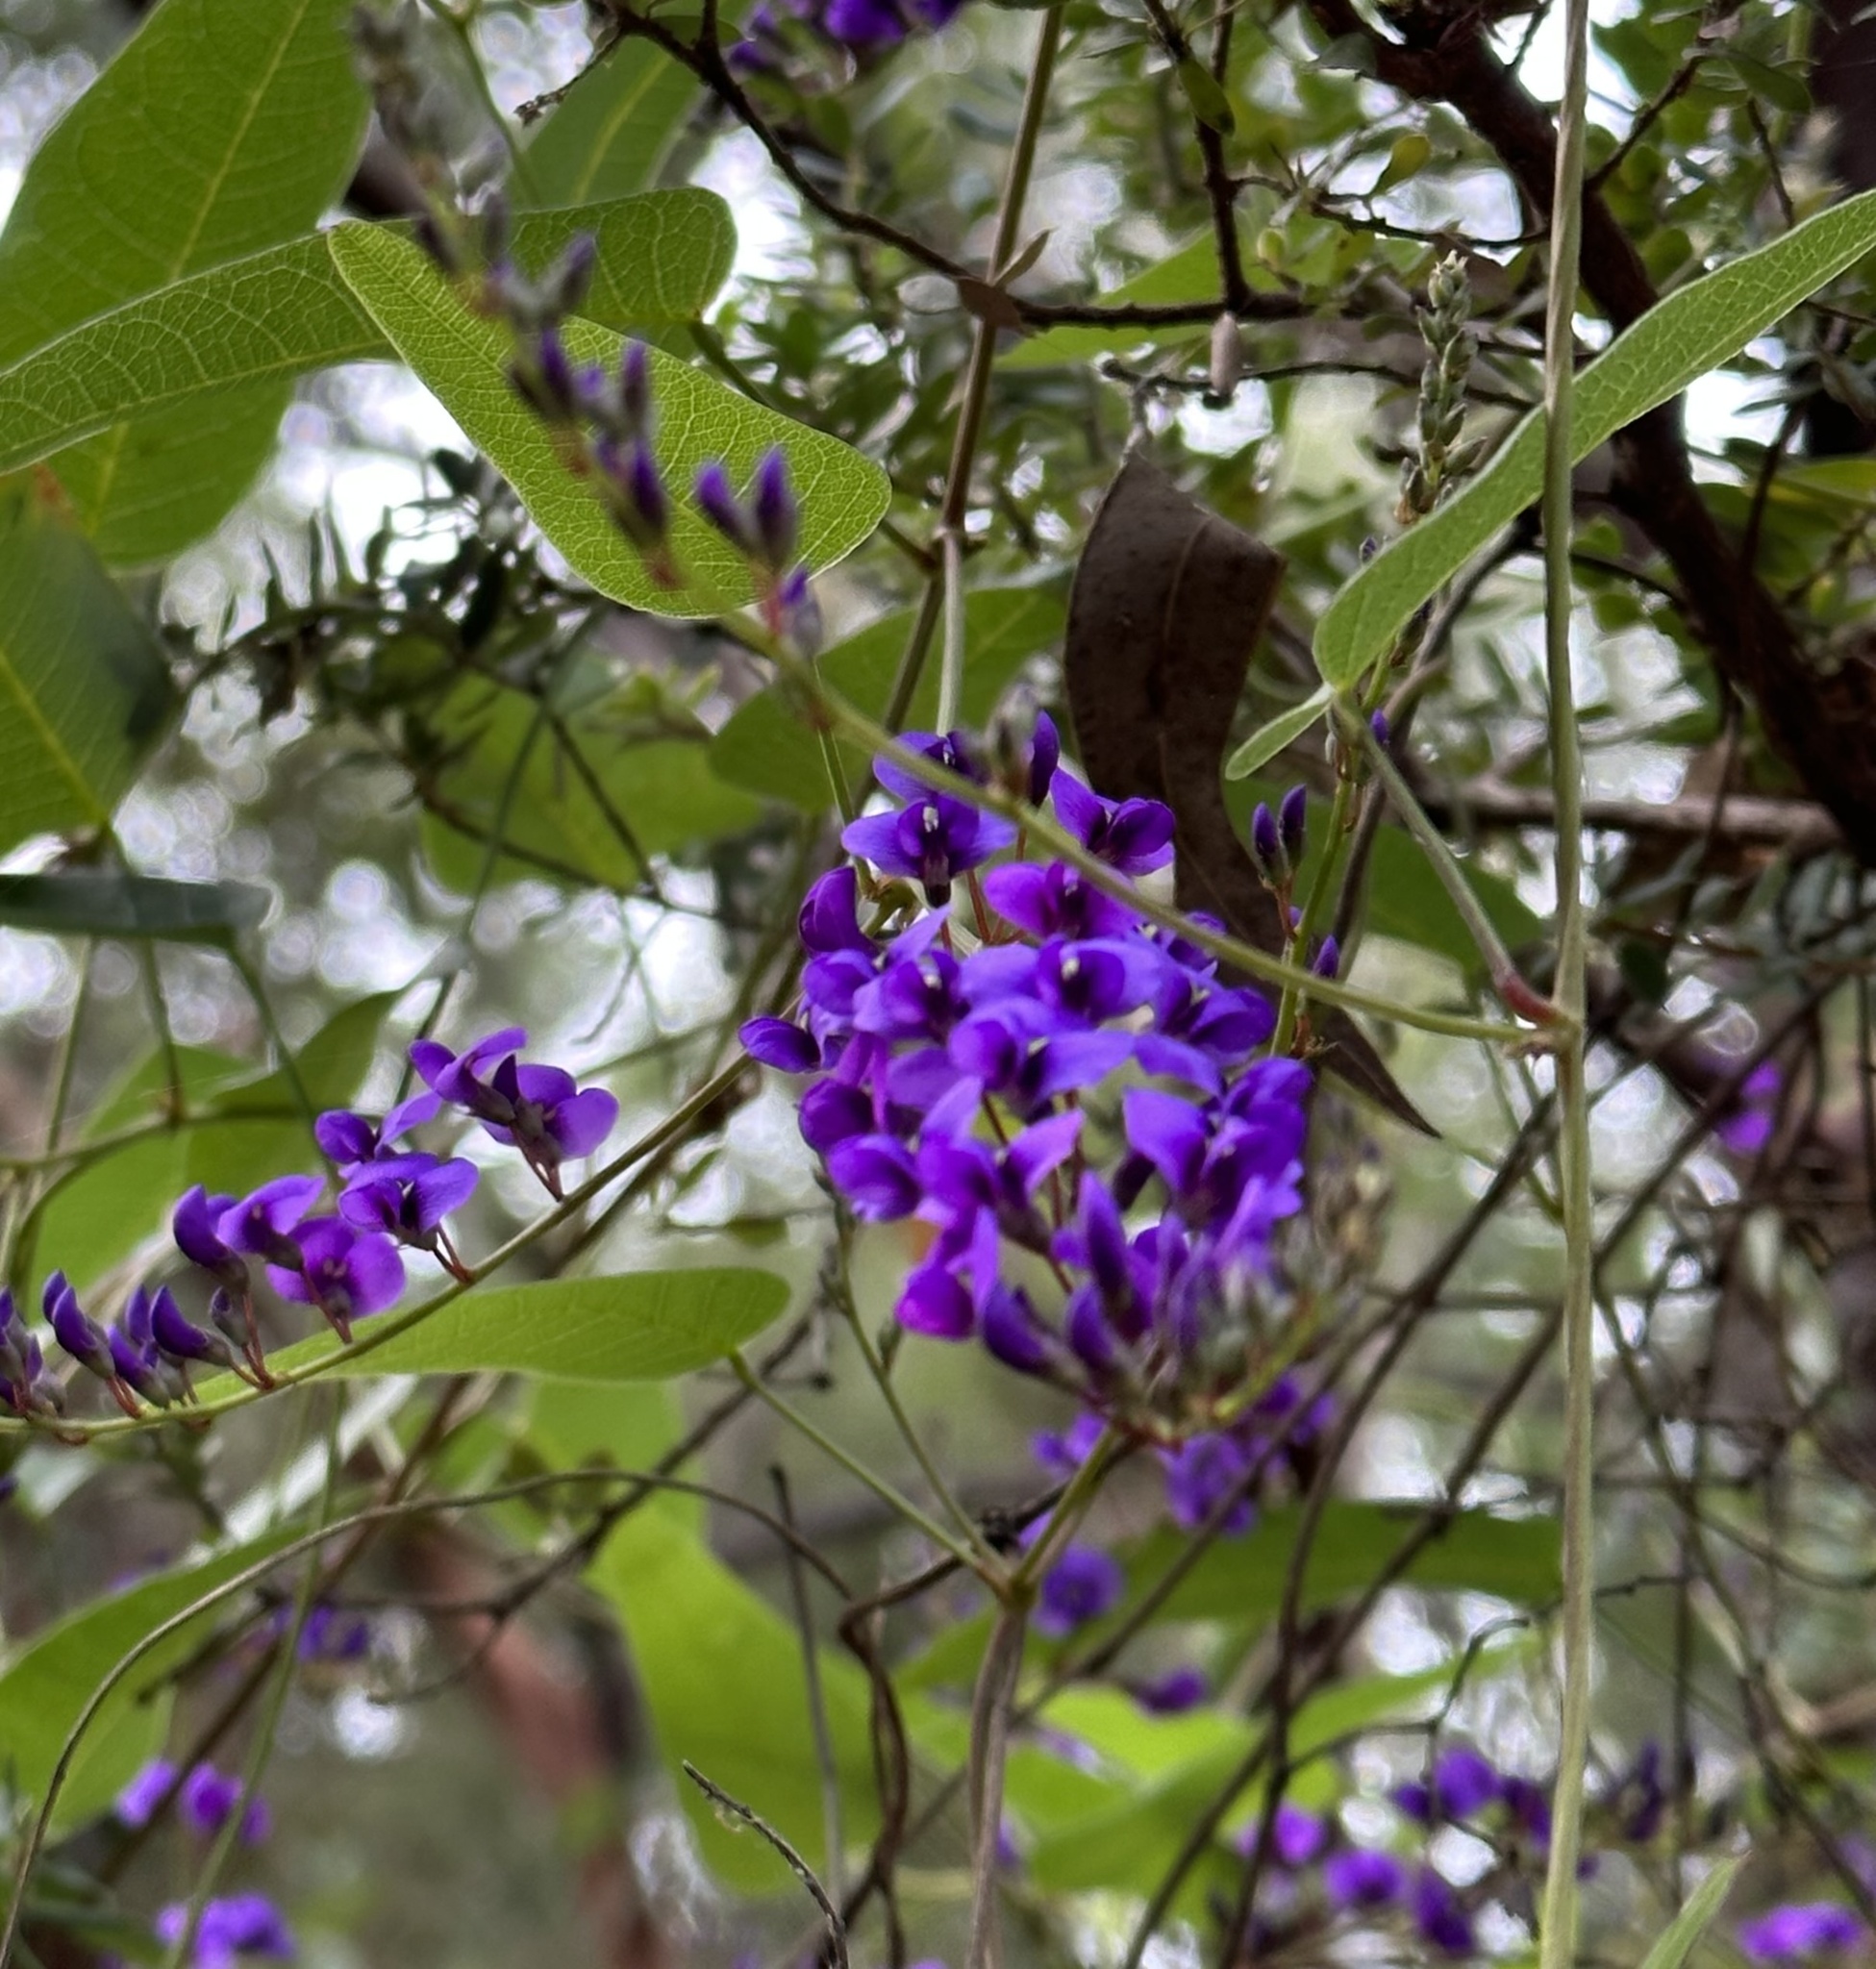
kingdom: Plantae
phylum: Tracheophyta
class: Magnoliopsida
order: Fabales
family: Fabaceae
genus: Hardenbergia
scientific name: Hardenbergia violacea
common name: Coral-pea
